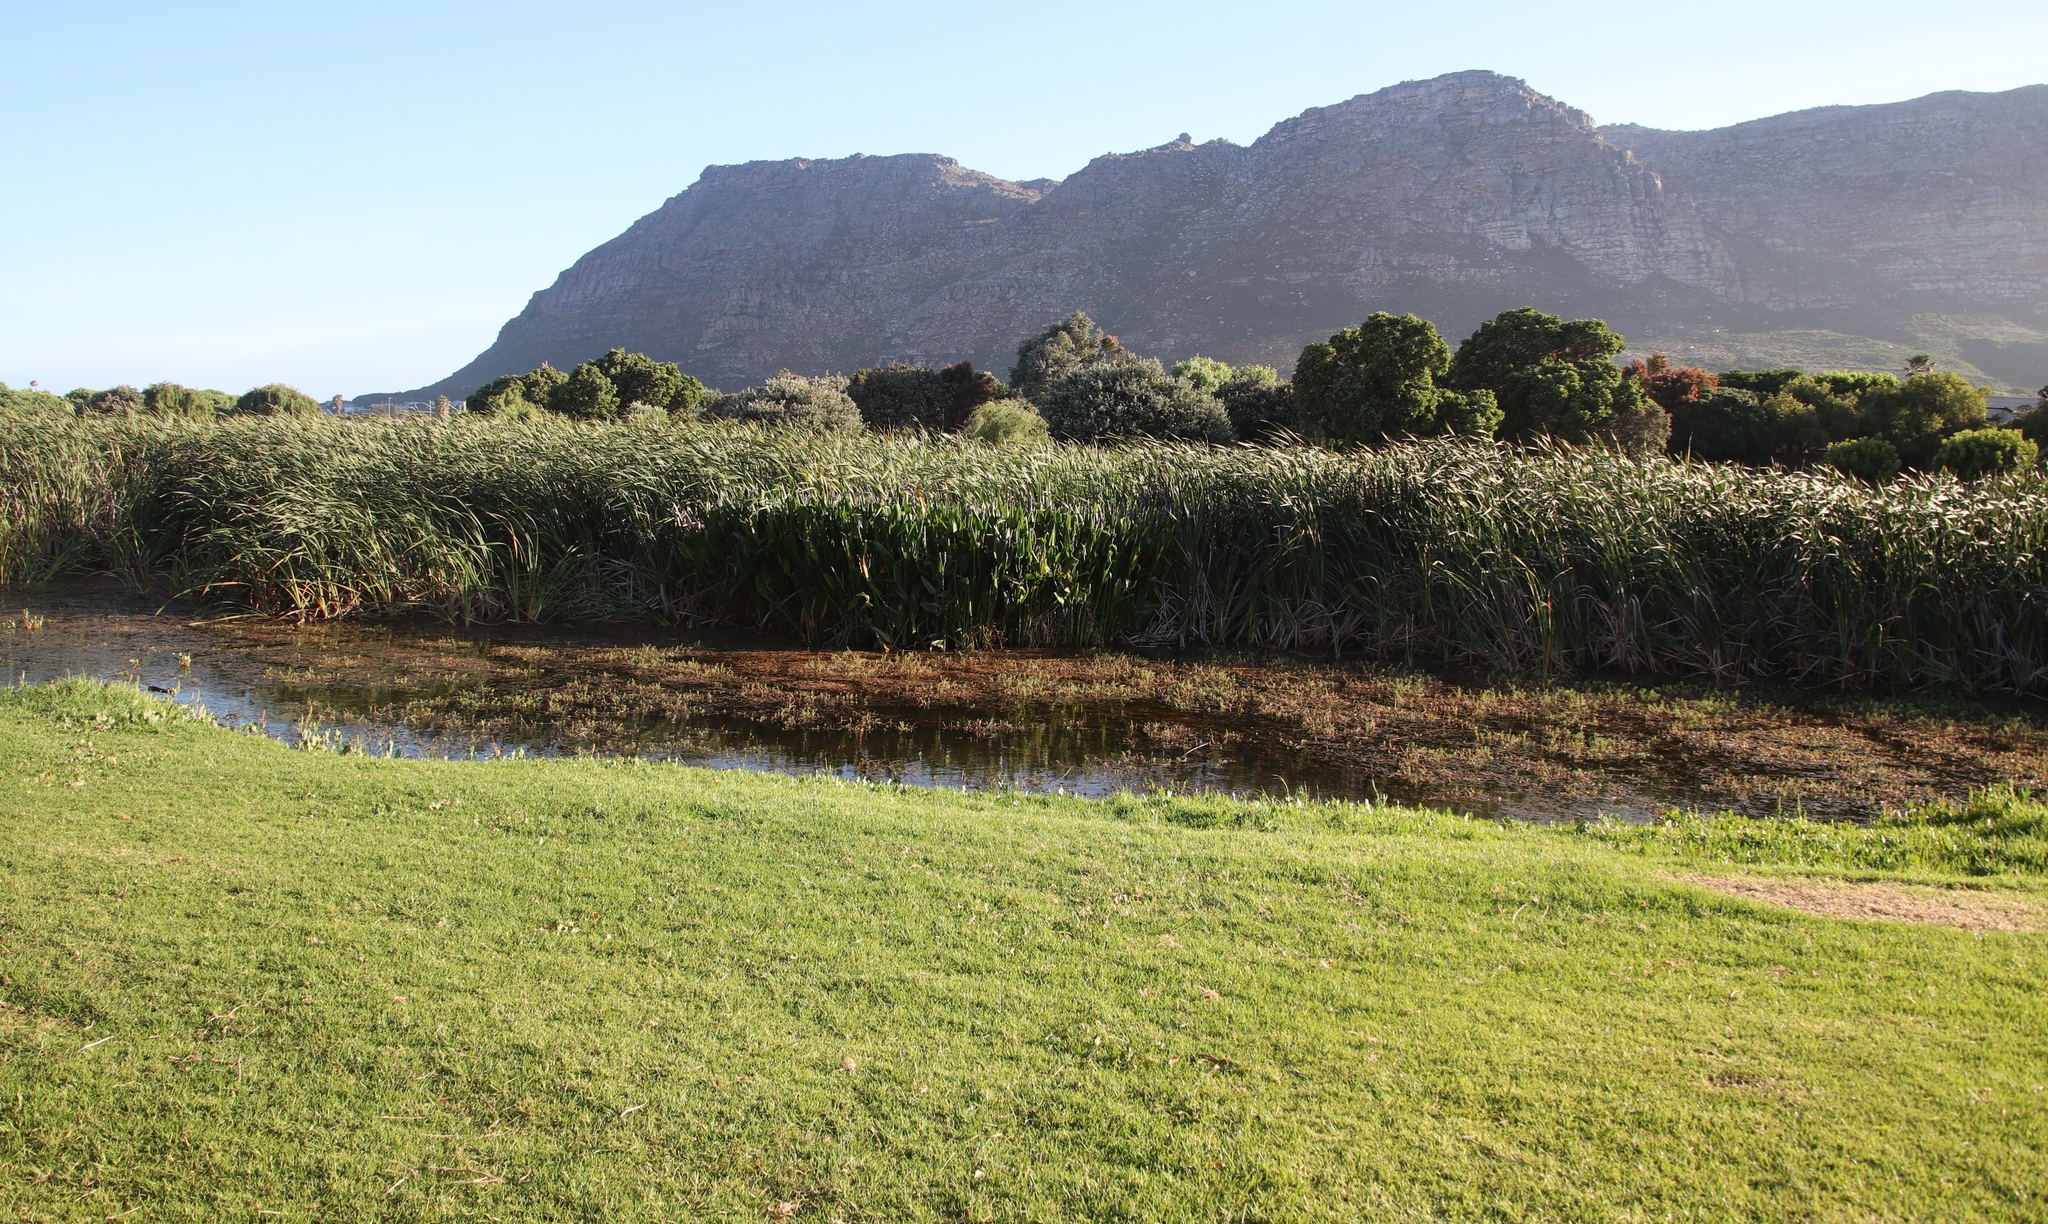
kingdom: Plantae
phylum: Tracheophyta
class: Liliopsida
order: Poales
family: Typhaceae
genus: Typha
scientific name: Typha capensis
